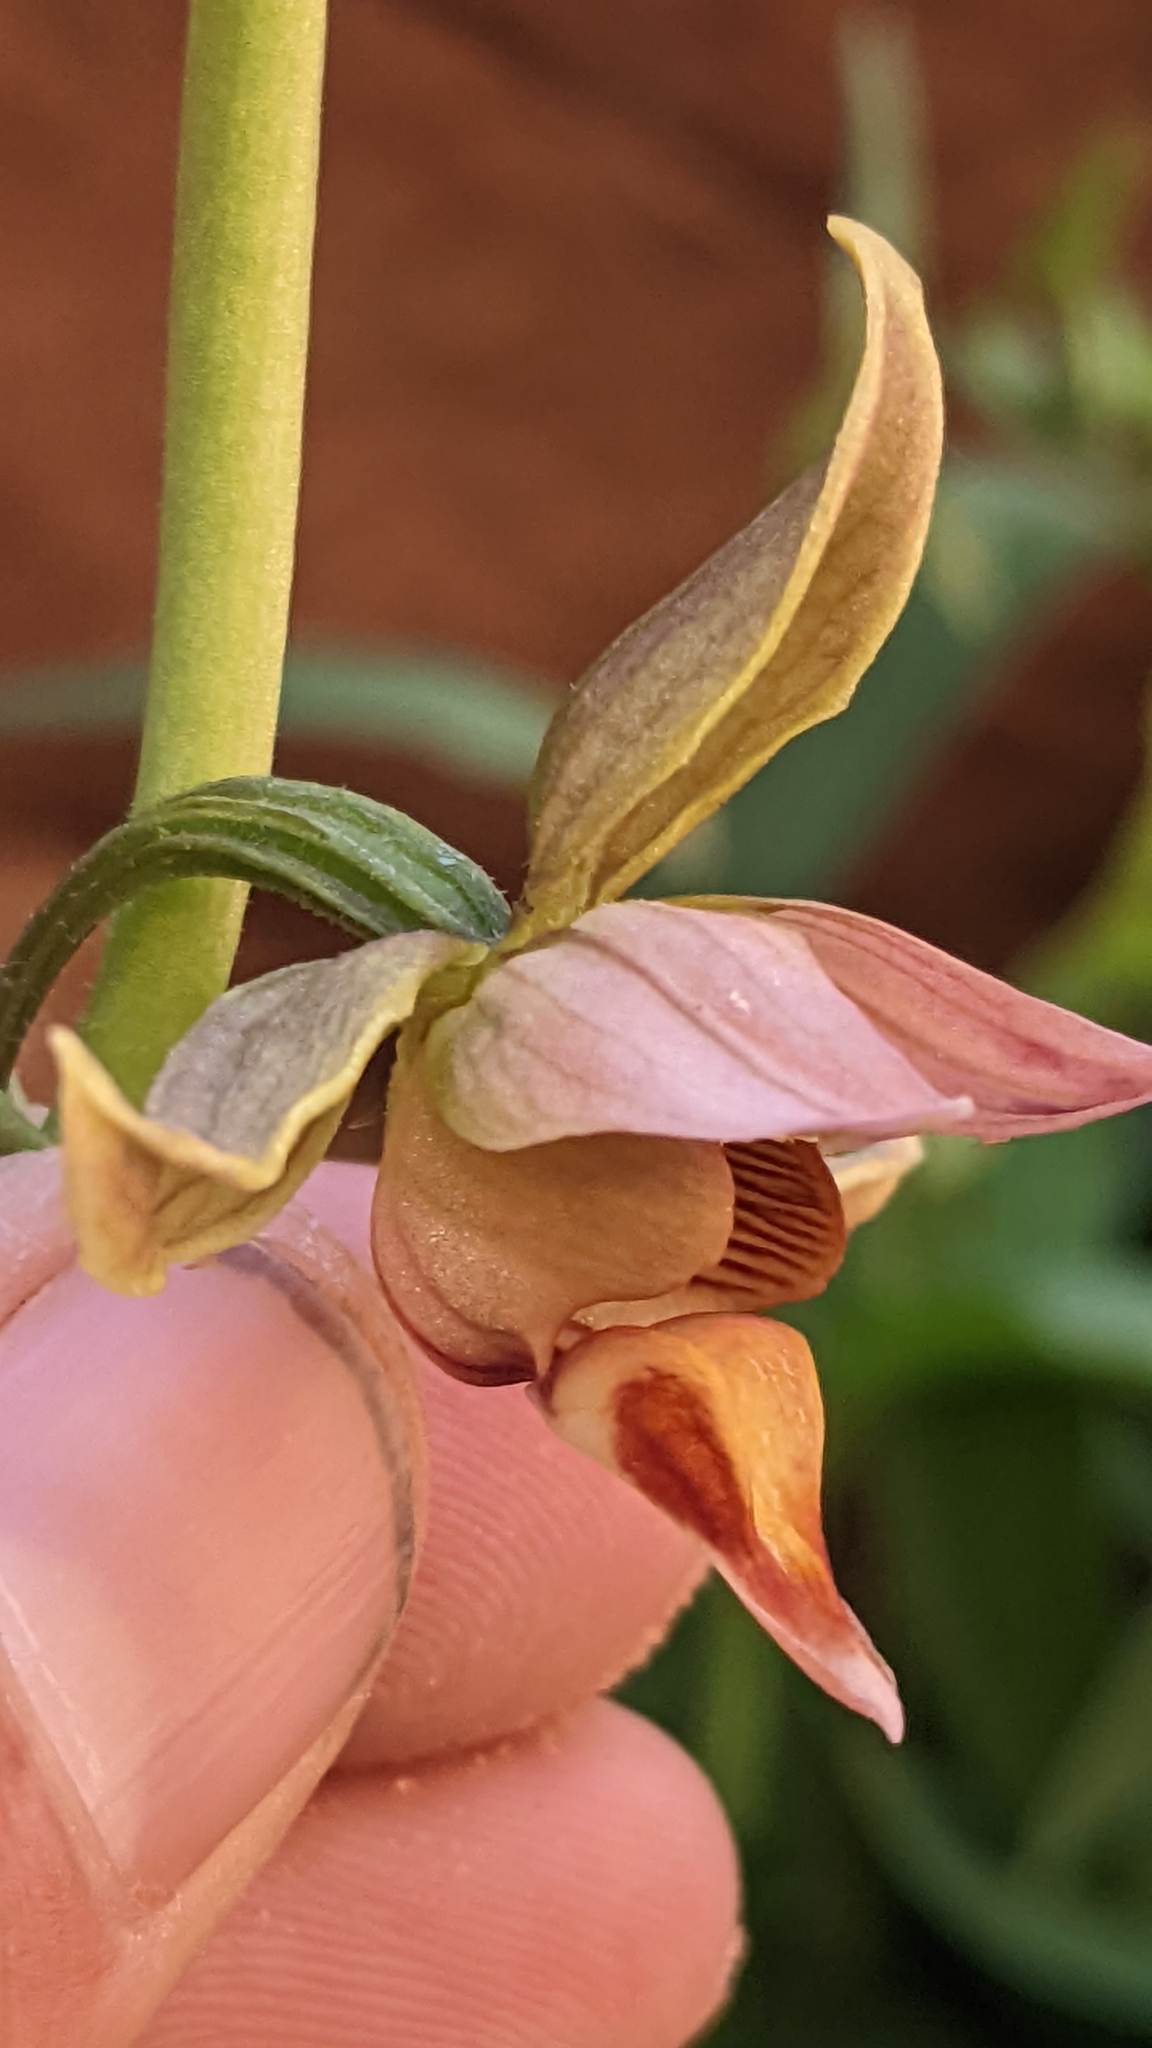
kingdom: Plantae
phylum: Tracheophyta
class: Liliopsida
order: Asparagales
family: Orchidaceae
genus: Epipactis
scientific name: Epipactis gigantea
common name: Chatterbox
